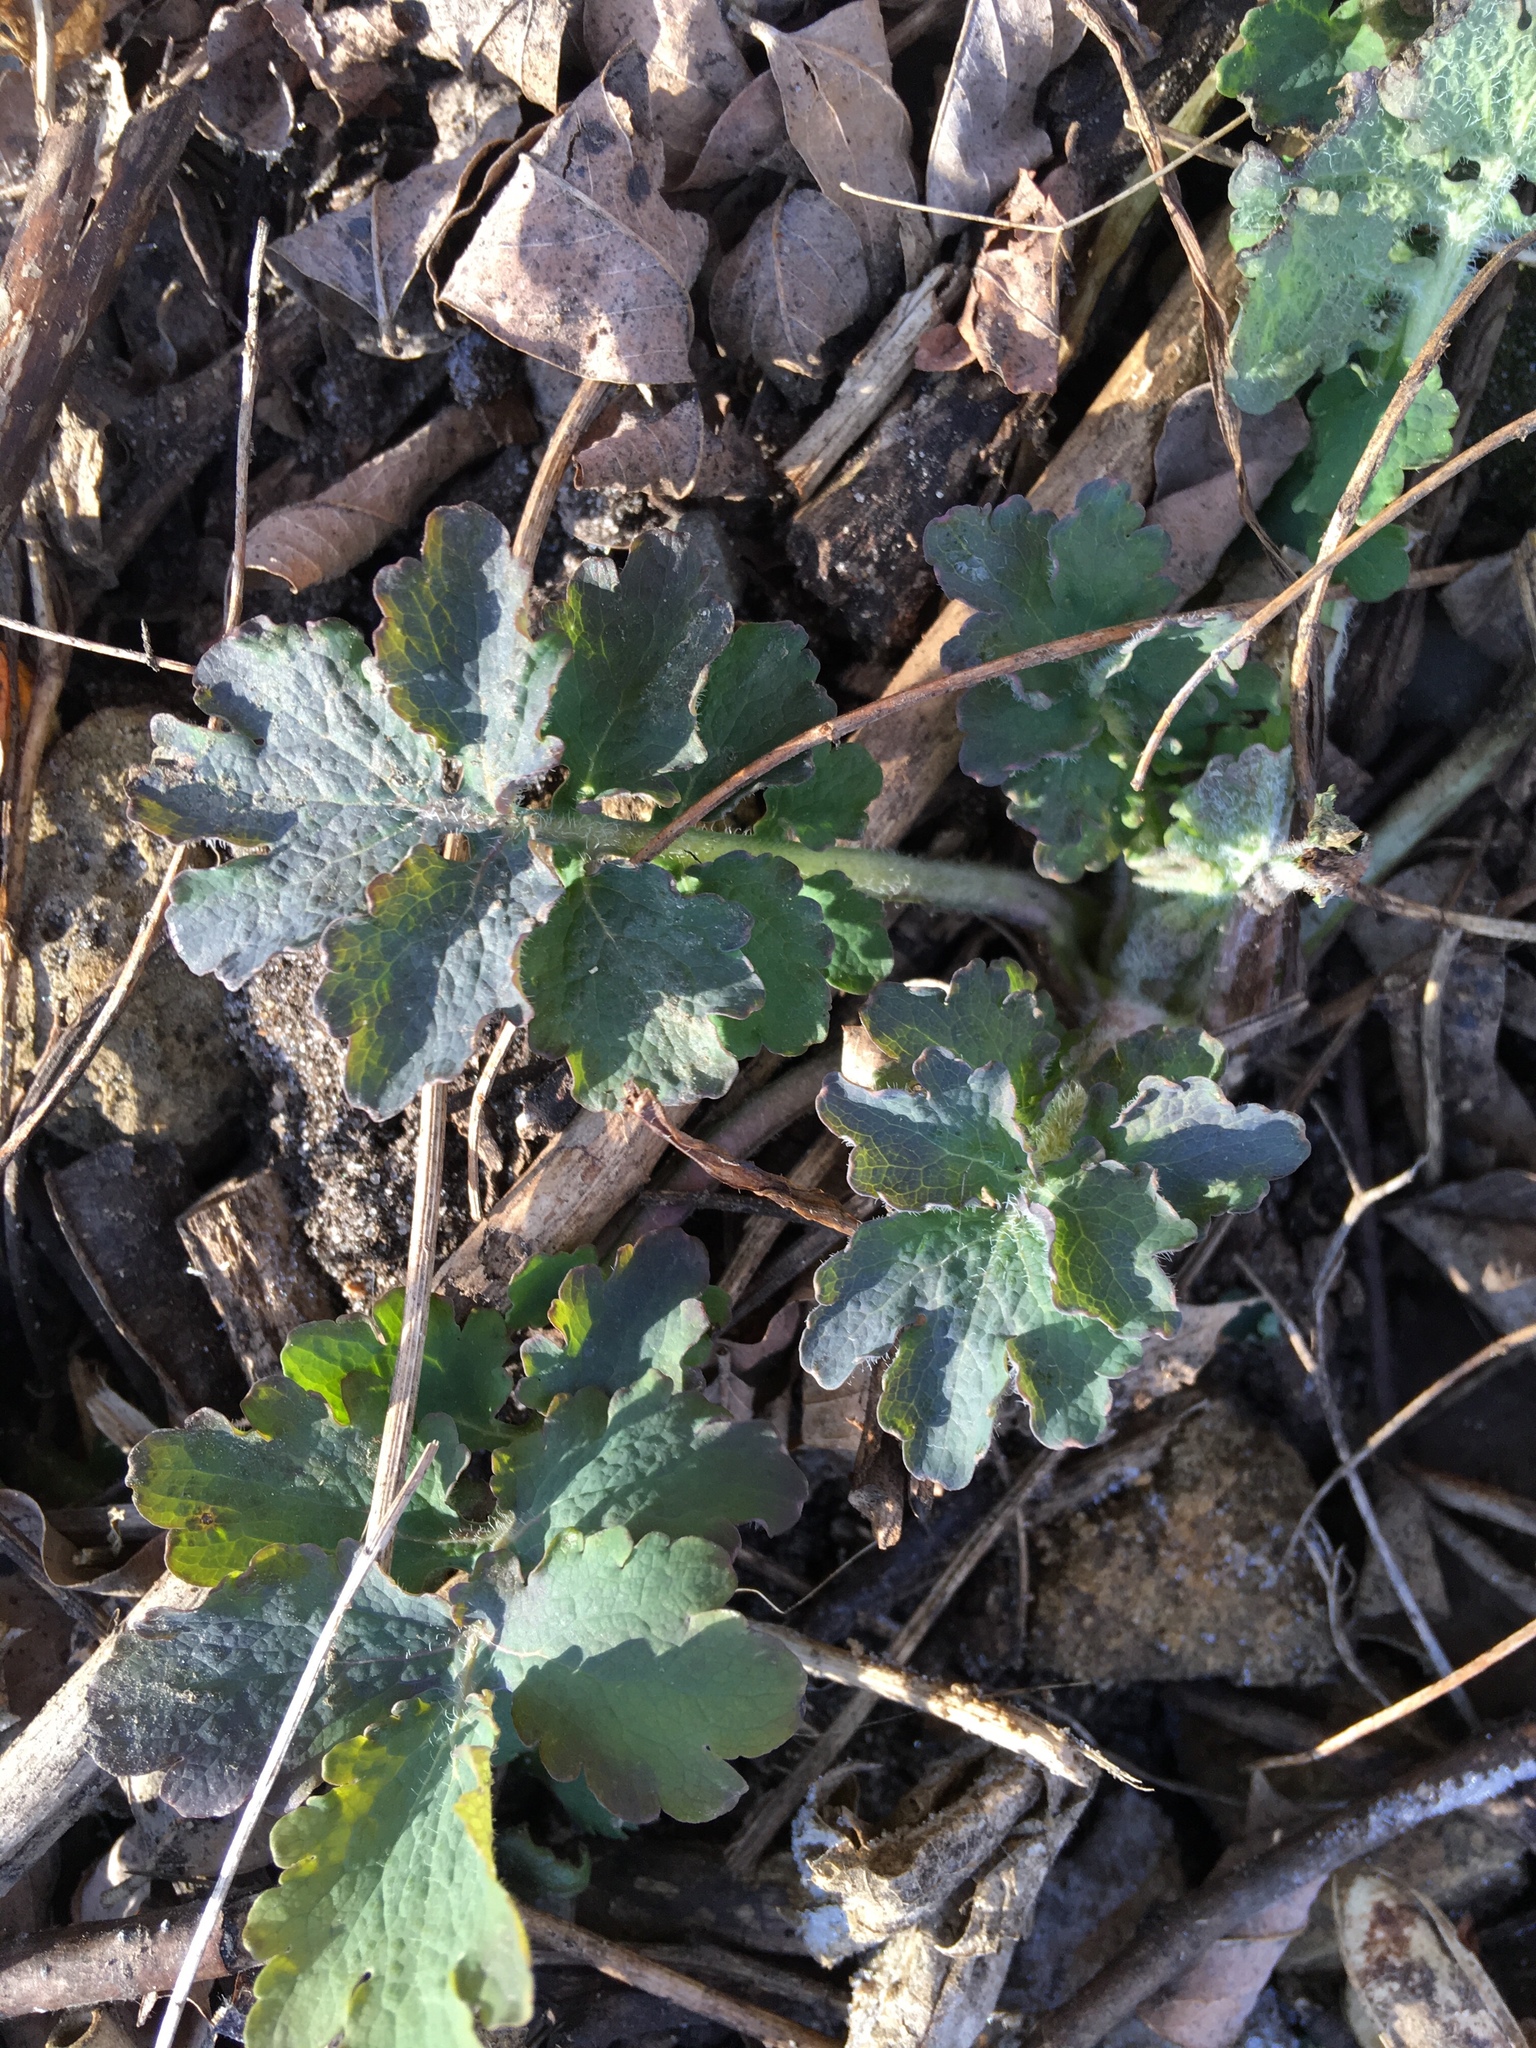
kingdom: Plantae
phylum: Tracheophyta
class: Magnoliopsida
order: Ranunculales
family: Papaveraceae
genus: Chelidonium
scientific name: Chelidonium majus
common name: Greater celandine
